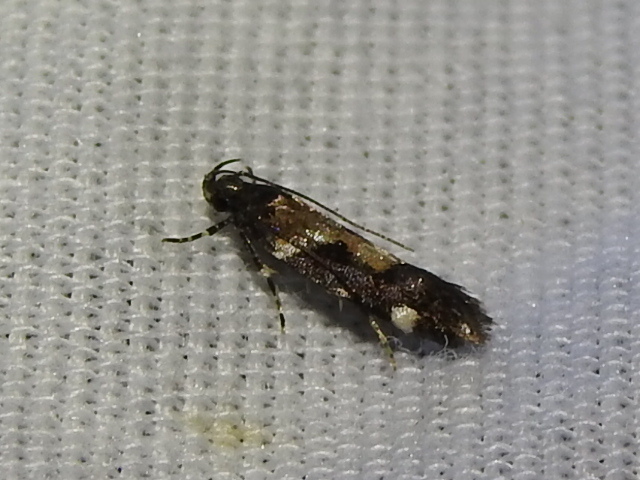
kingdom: Animalia
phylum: Arthropoda
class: Insecta
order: Lepidoptera
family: Gelechiidae
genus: Stegasta
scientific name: Stegasta bosqueella
